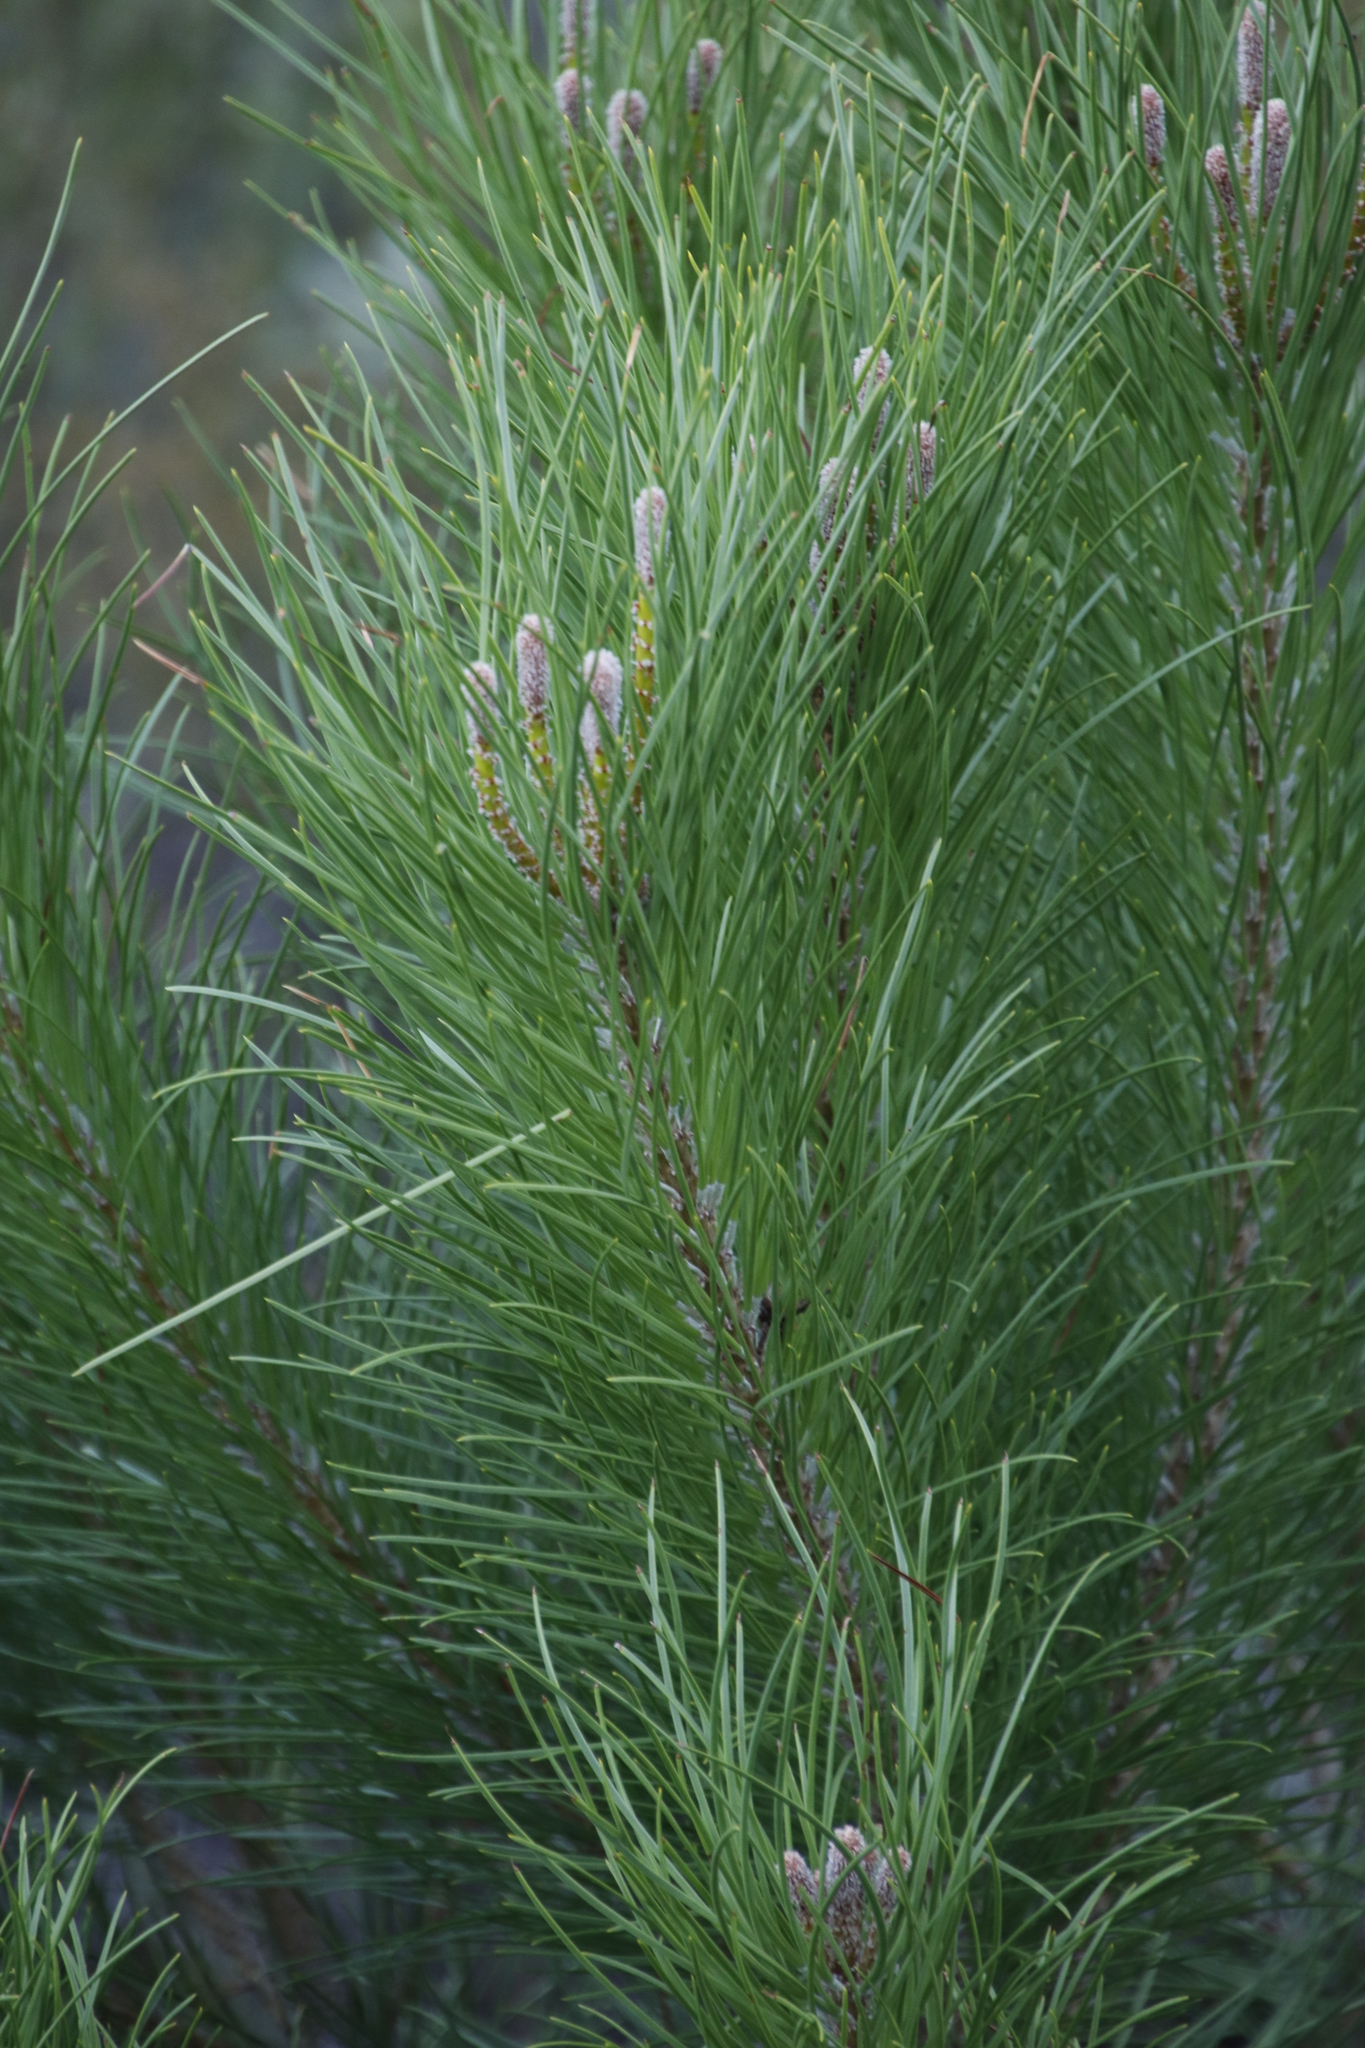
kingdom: Plantae
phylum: Tracheophyta
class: Pinopsida
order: Pinales
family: Pinaceae
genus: Pinus
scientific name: Pinus pinea
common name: Italian stone pine
